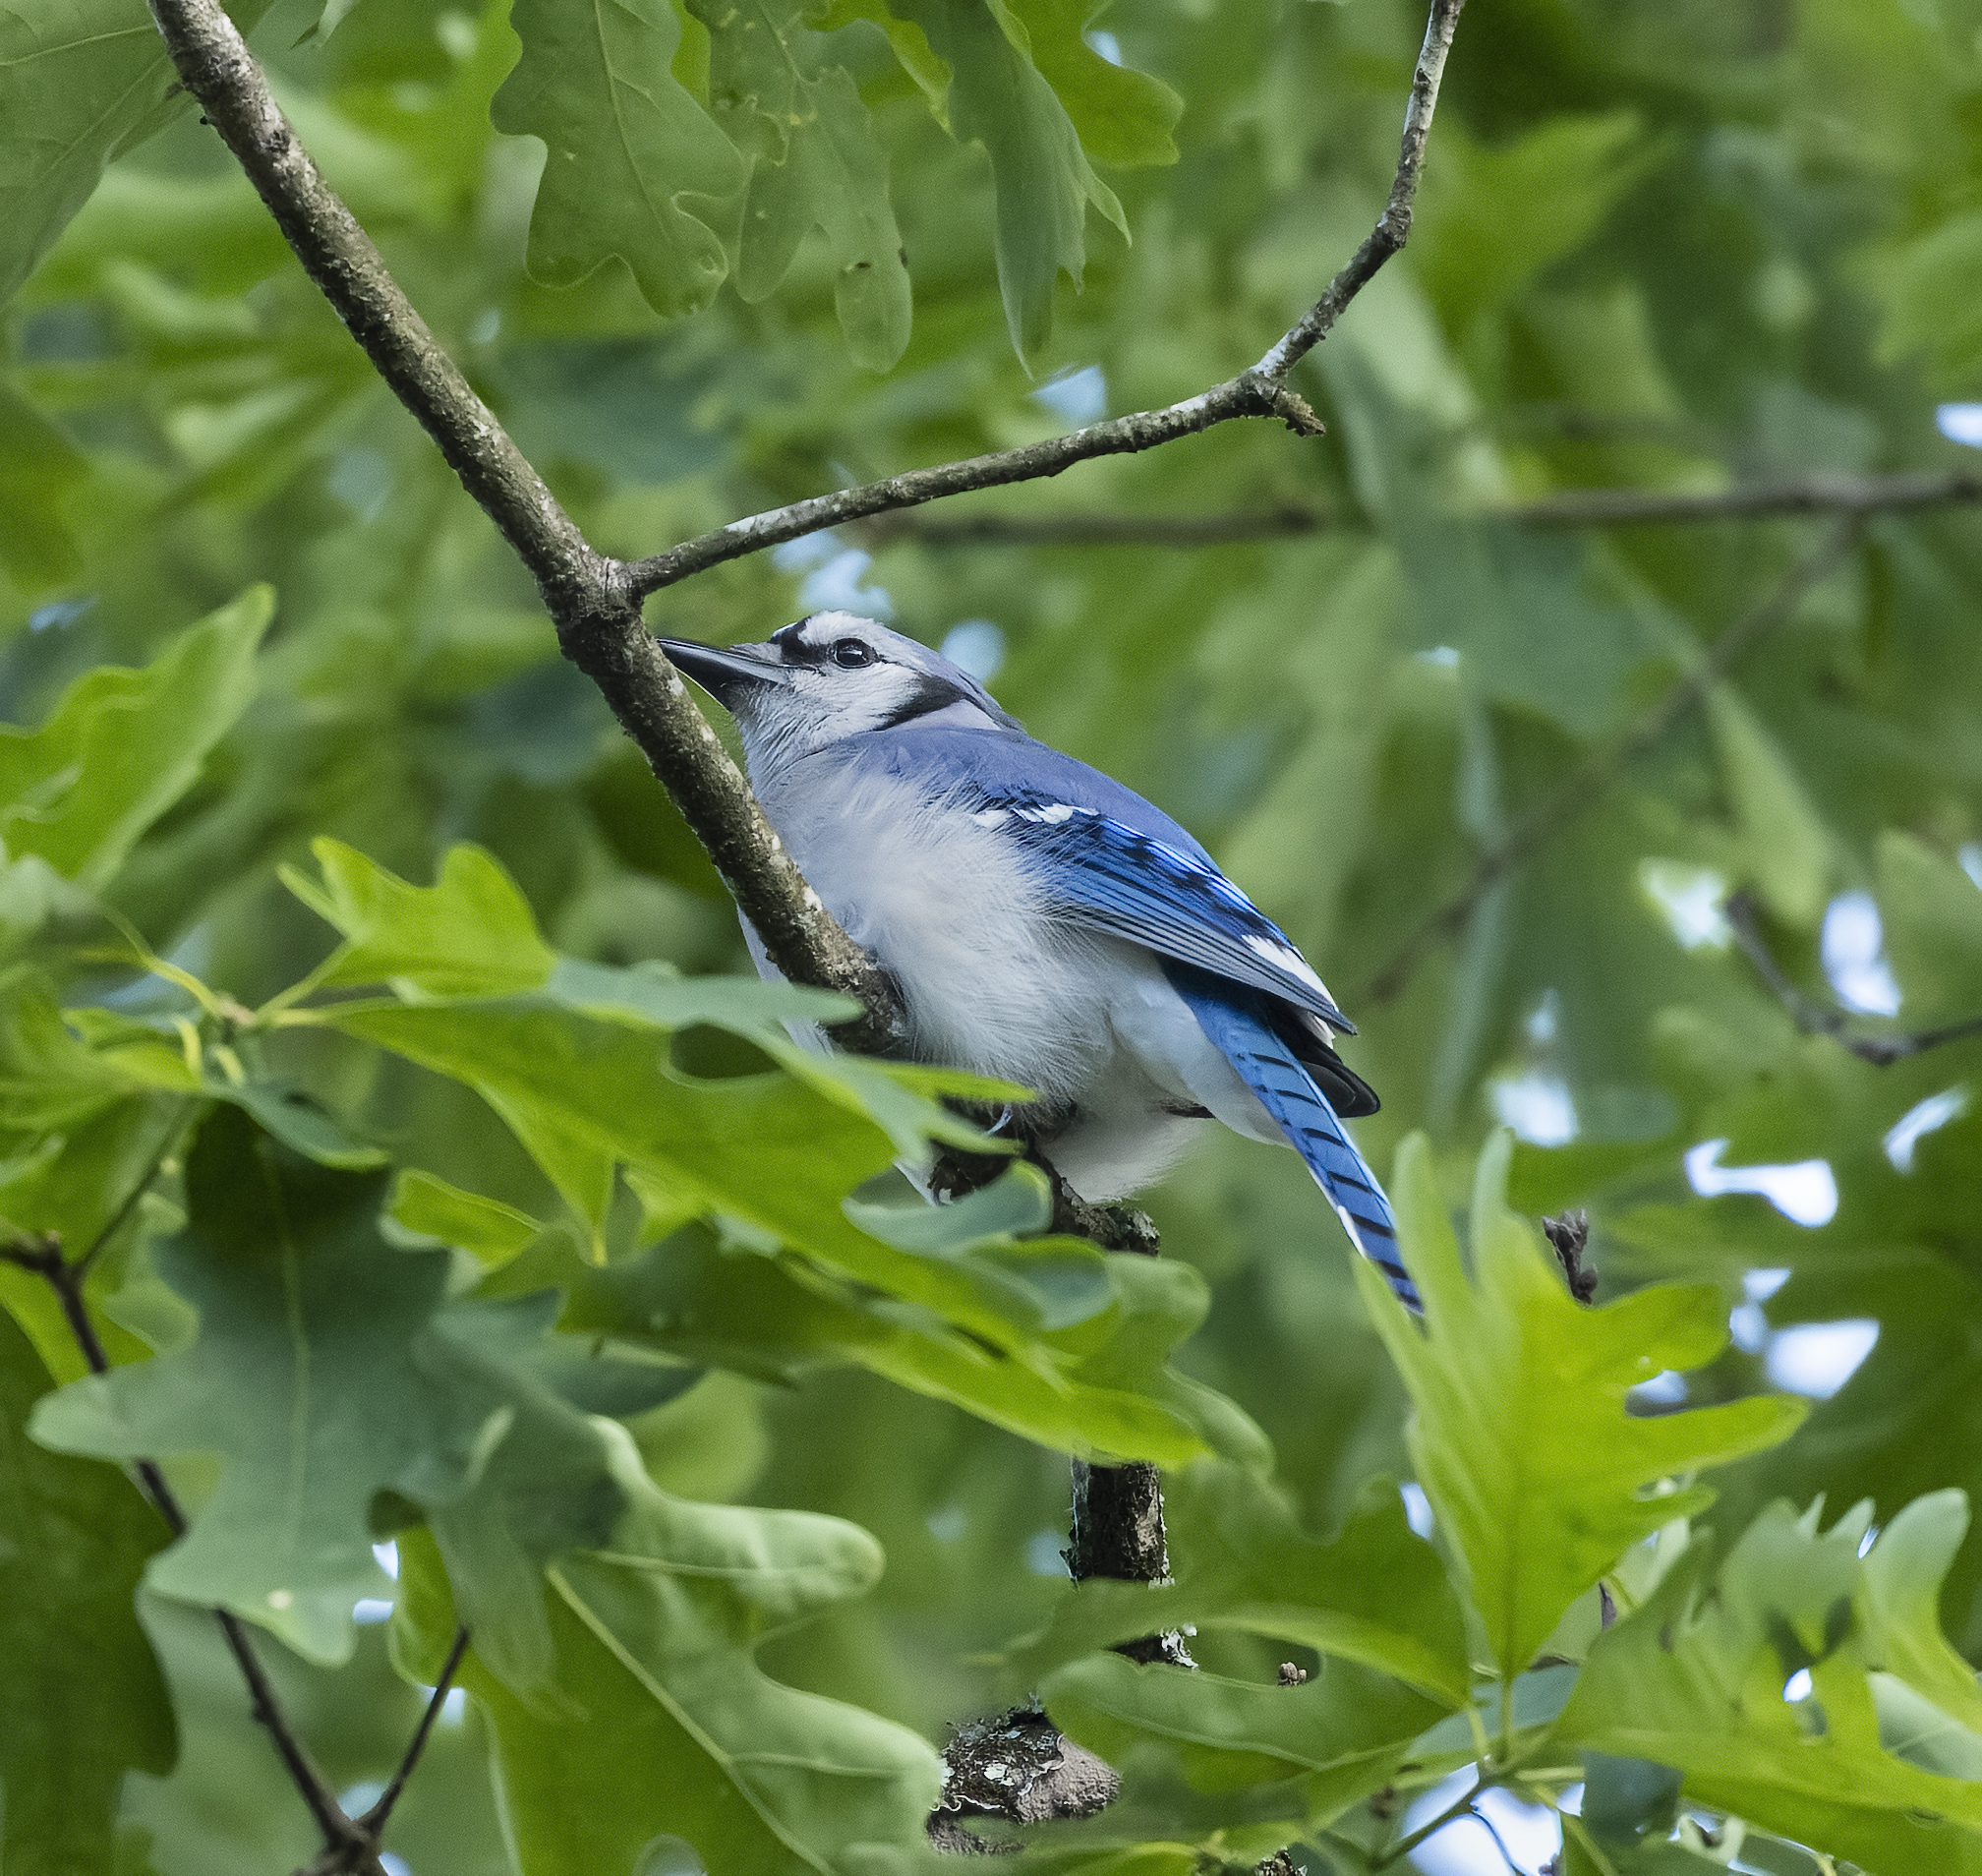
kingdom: Animalia
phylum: Chordata
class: Aves
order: Passeriformes
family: Corvidae
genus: Cyanocitta
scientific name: Cyanocitta cristata
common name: Blue jay
